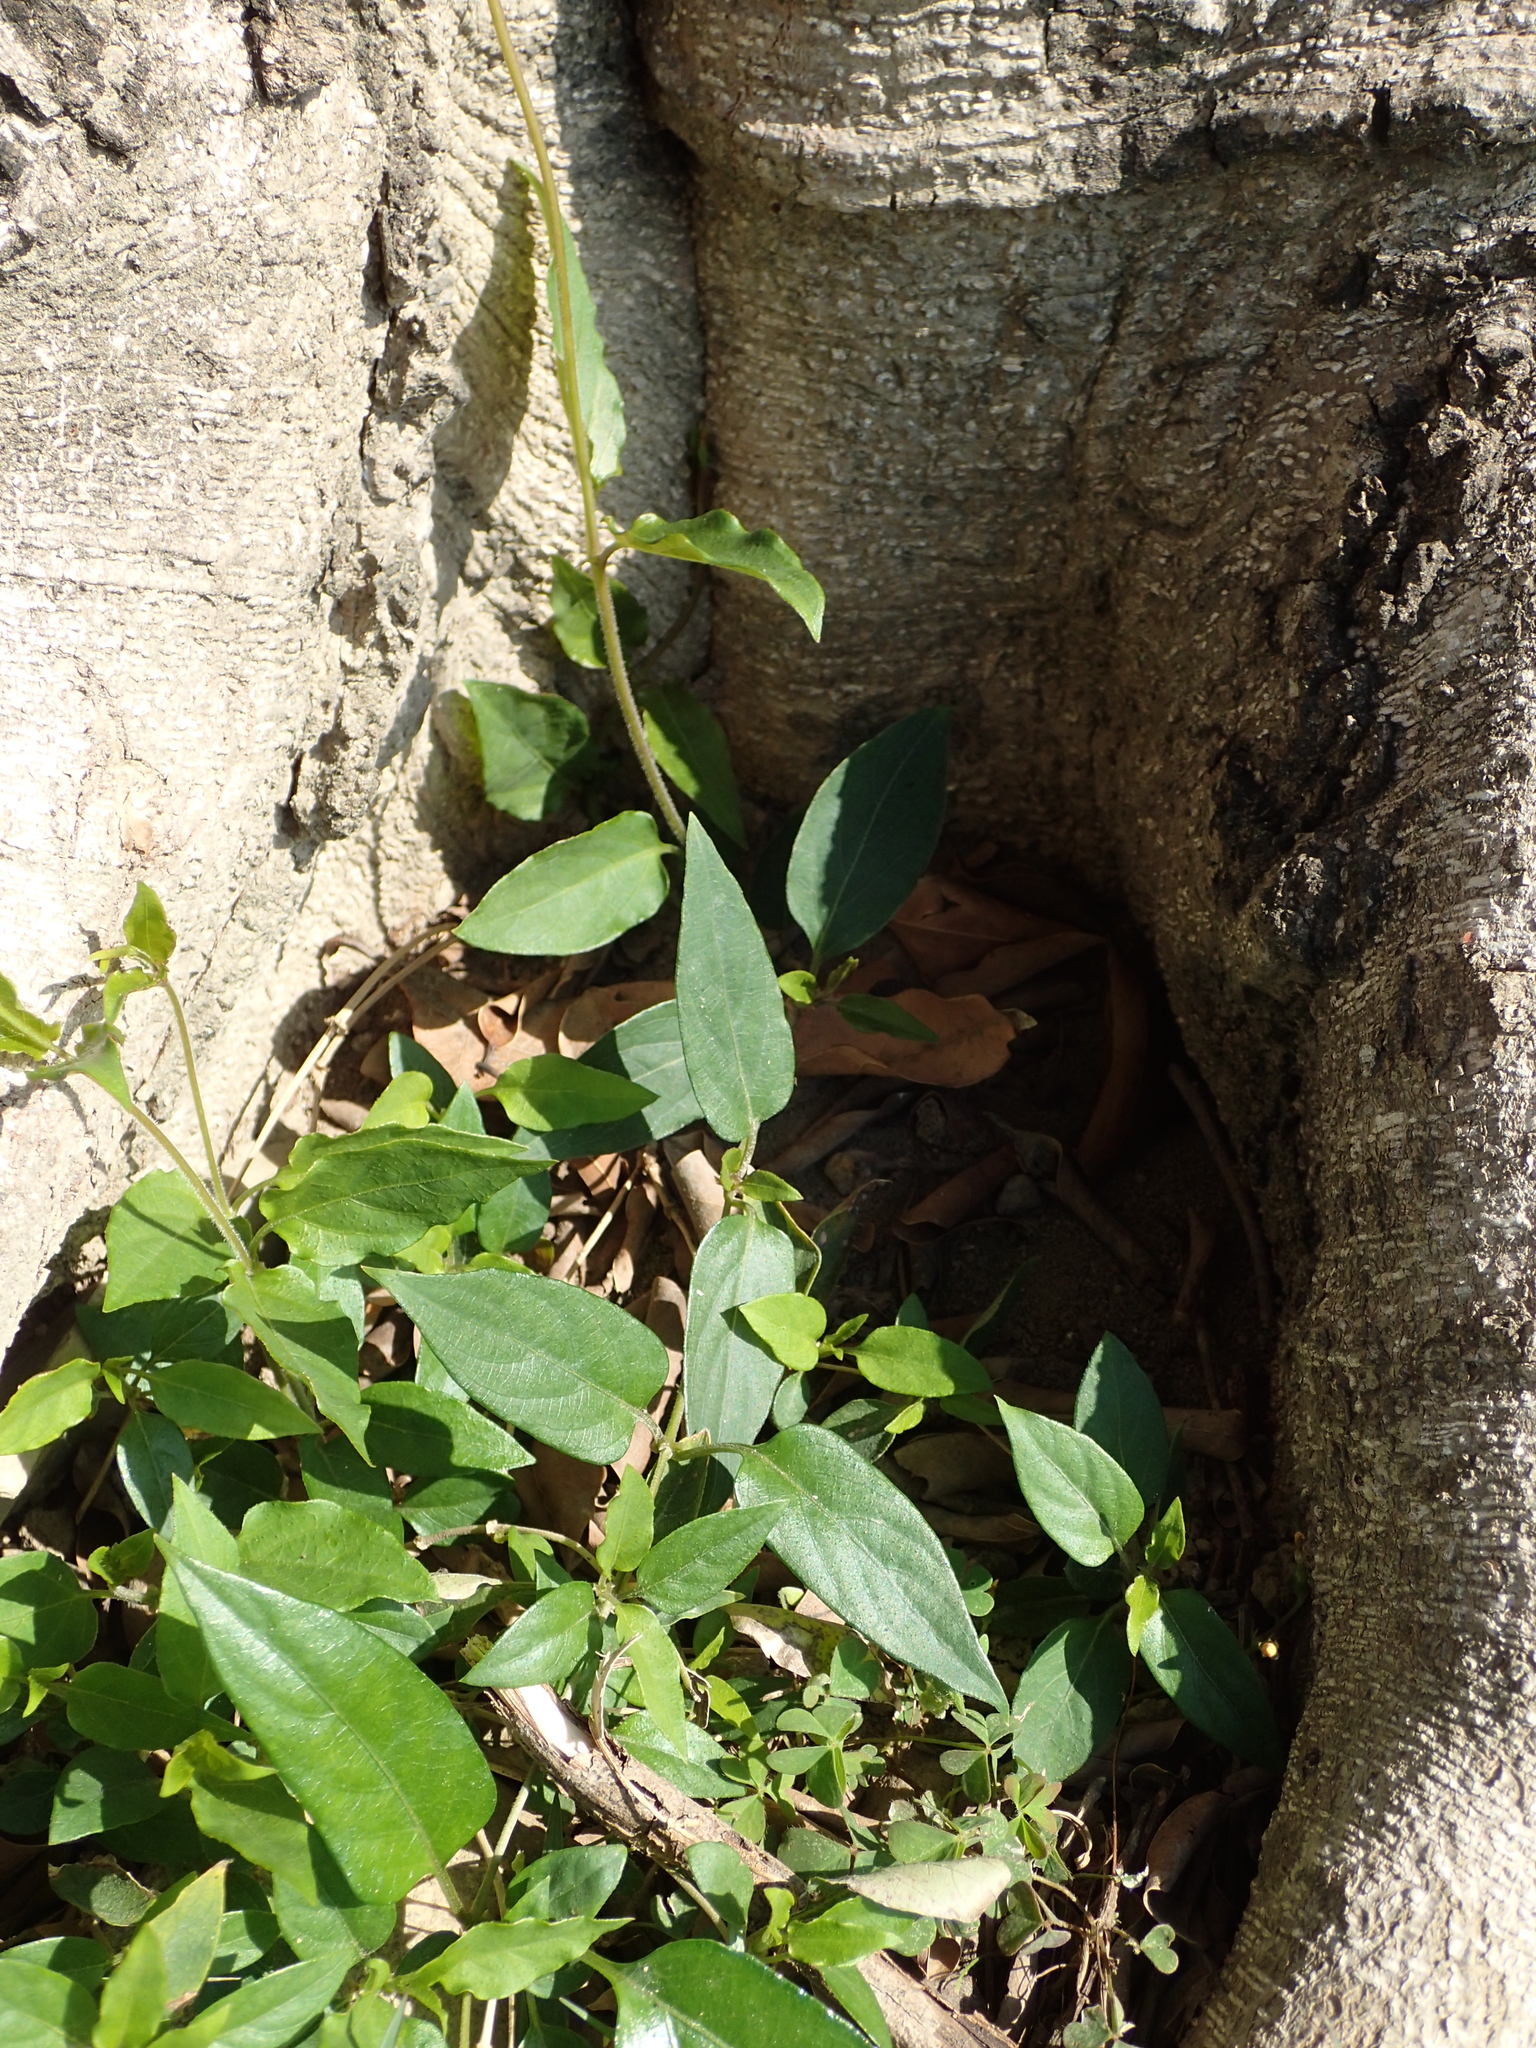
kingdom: Plantae
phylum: Tracheophyta
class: Magnoliopsida
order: Gentianales
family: Rubiaceae
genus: Paederia
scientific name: Paederia foetida
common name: Stinkvine
